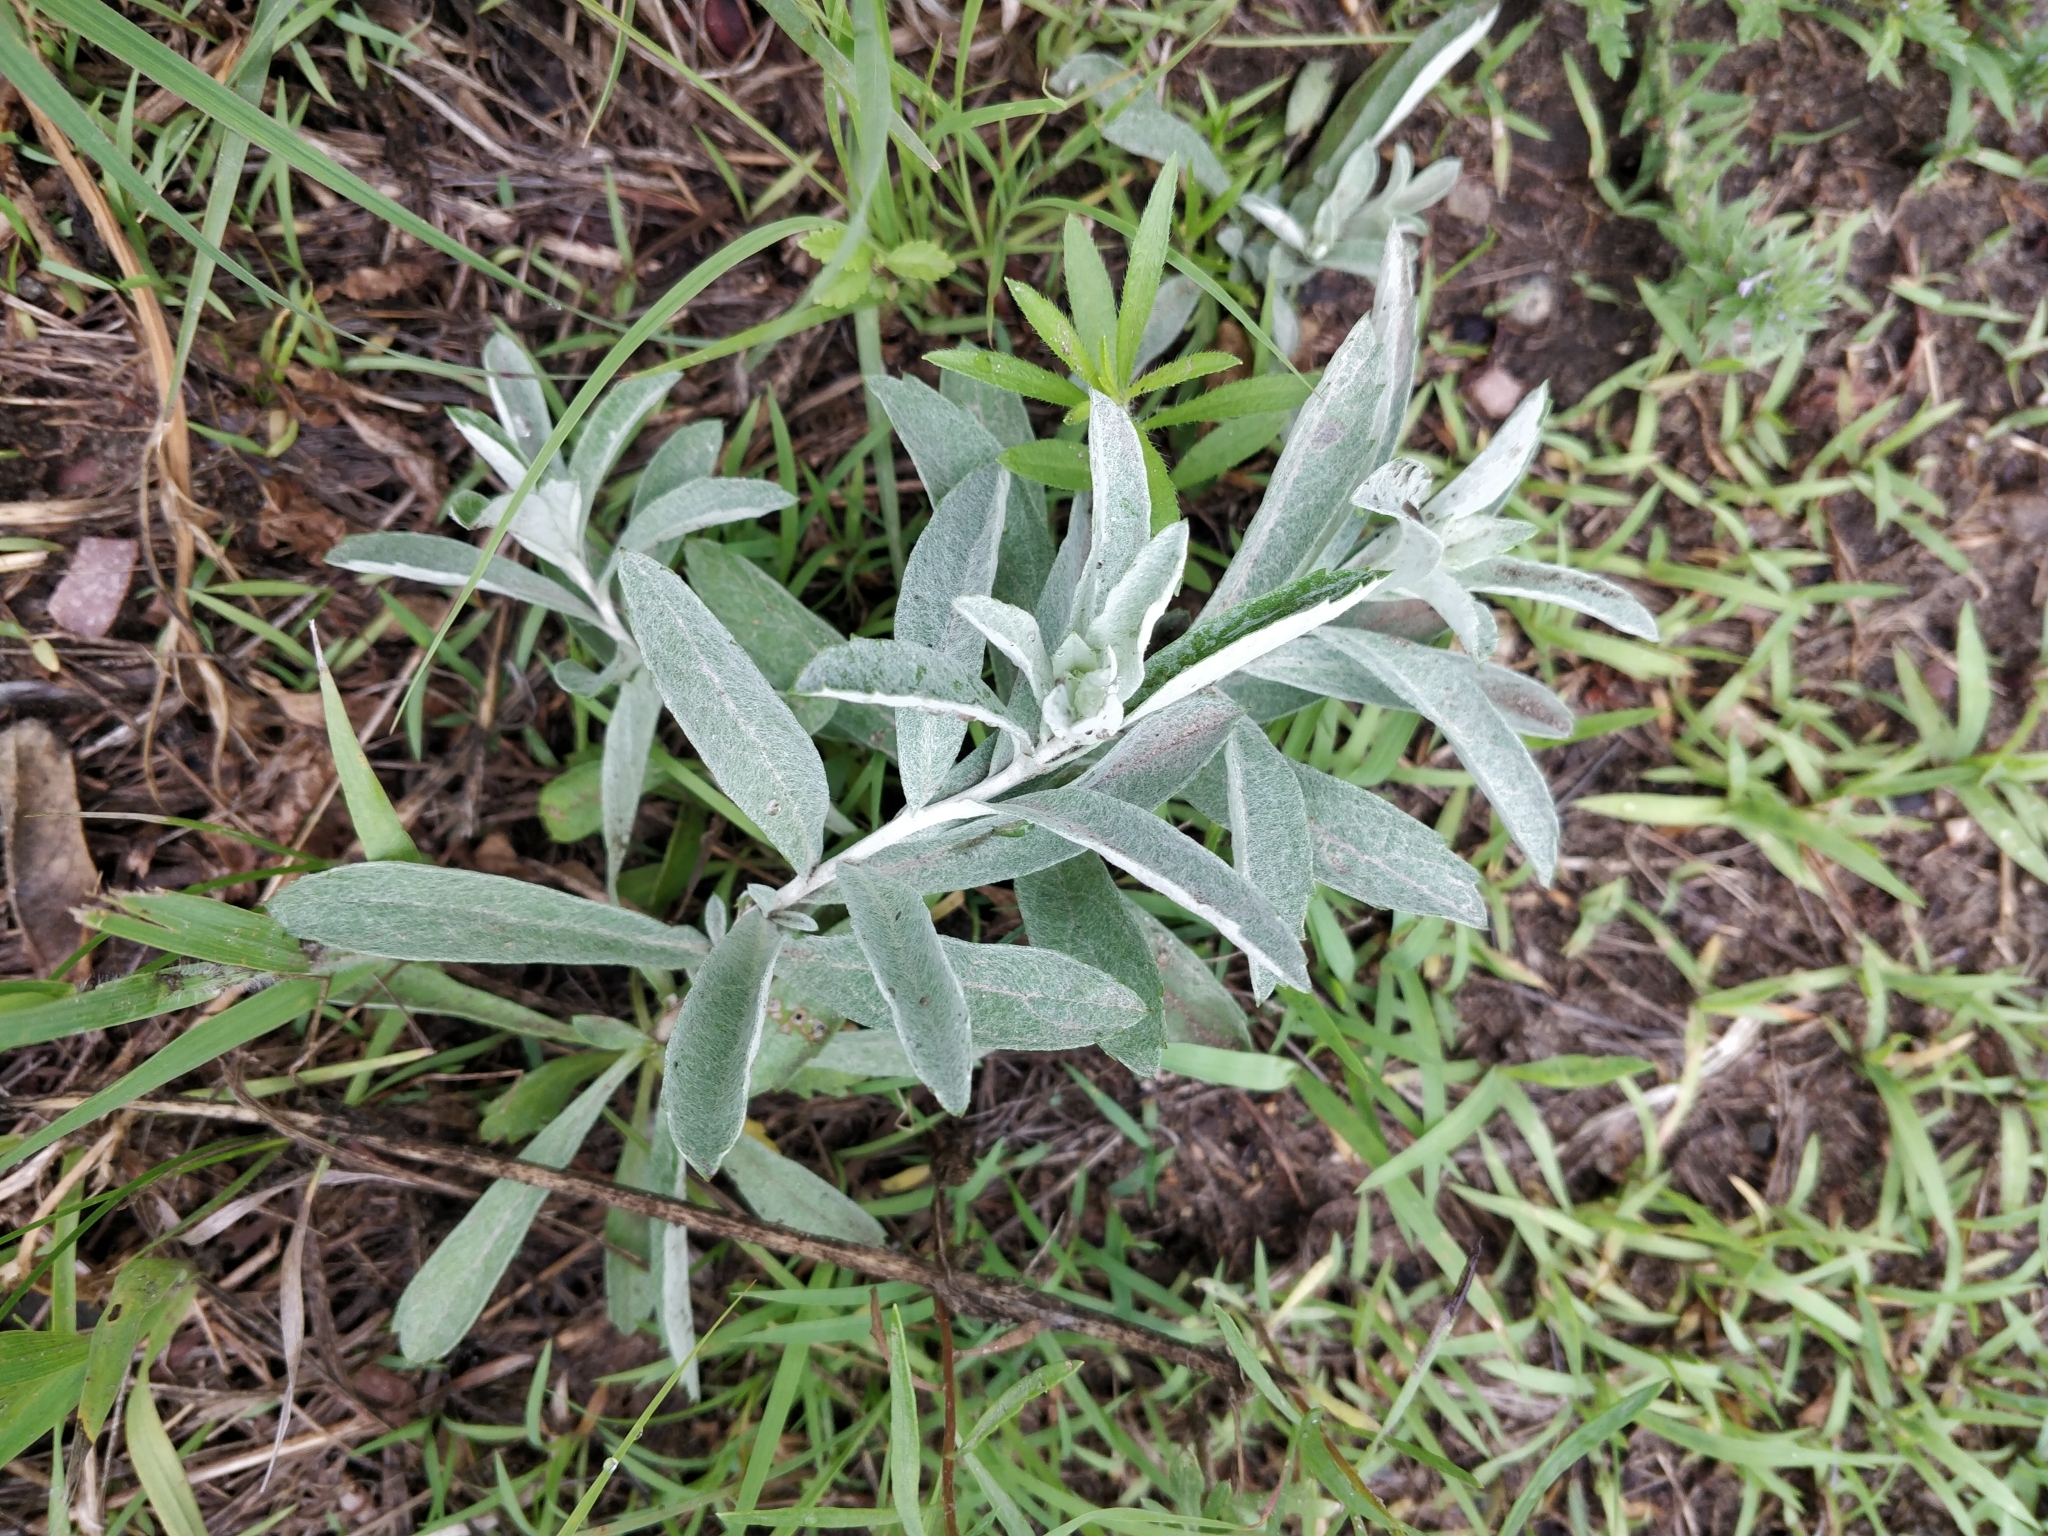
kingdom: Plantae
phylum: Tracheophyta
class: Magnoliopsida
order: Asterales
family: Asteraceae
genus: Artemisia
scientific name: Artemisia ludoviciana
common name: Western mugwort
